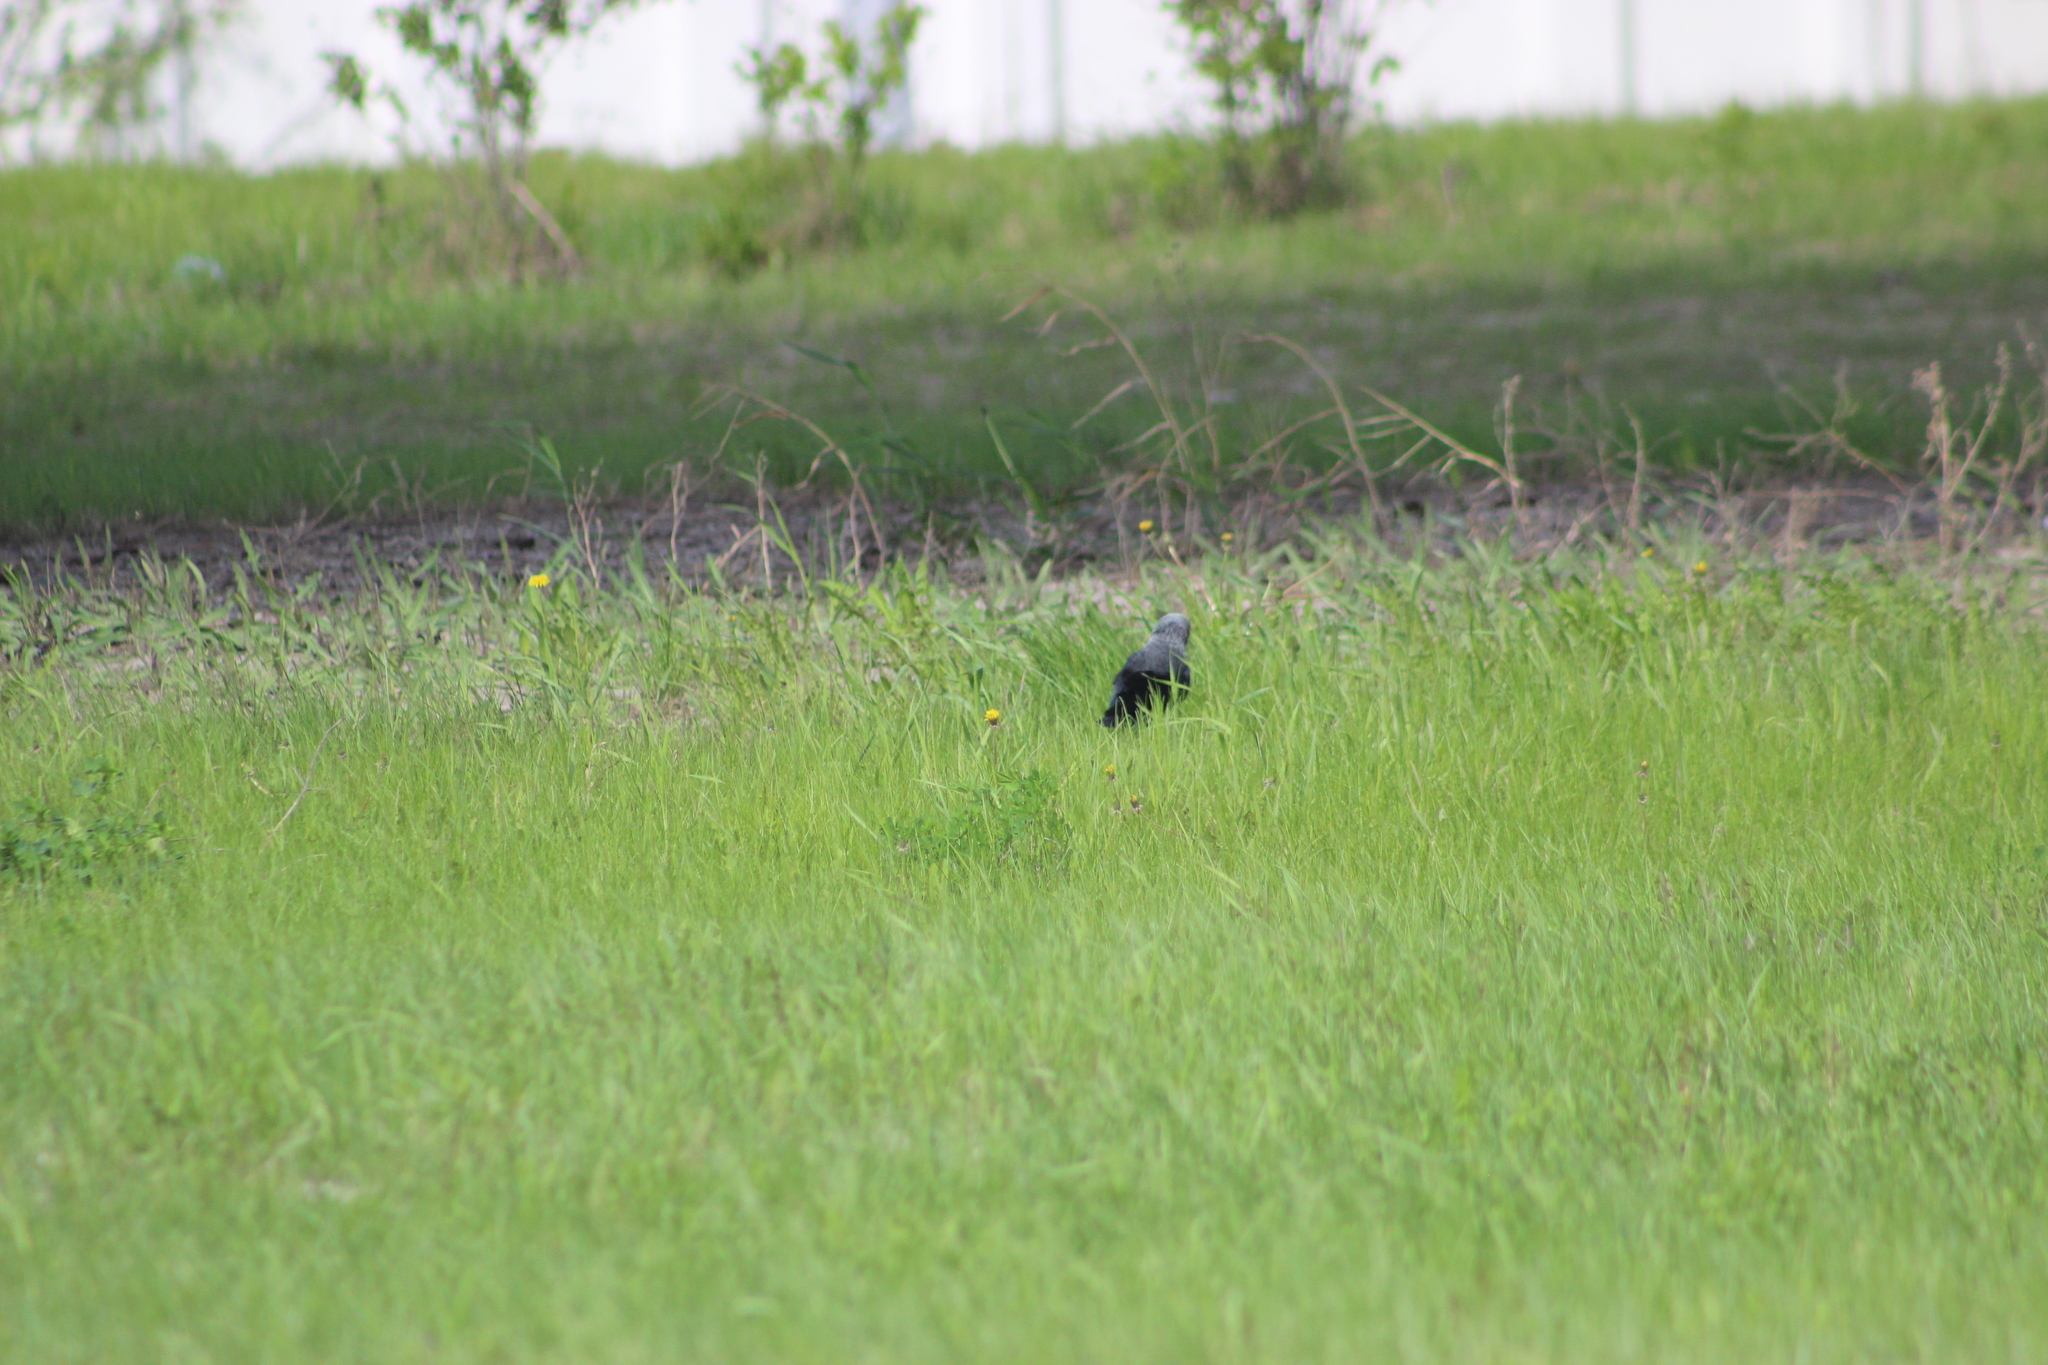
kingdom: Animalia
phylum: Chordata
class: Aves
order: Passeriformes
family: Corvidae
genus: Coloeus
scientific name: Coloeus monedula
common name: Western jackdaw
